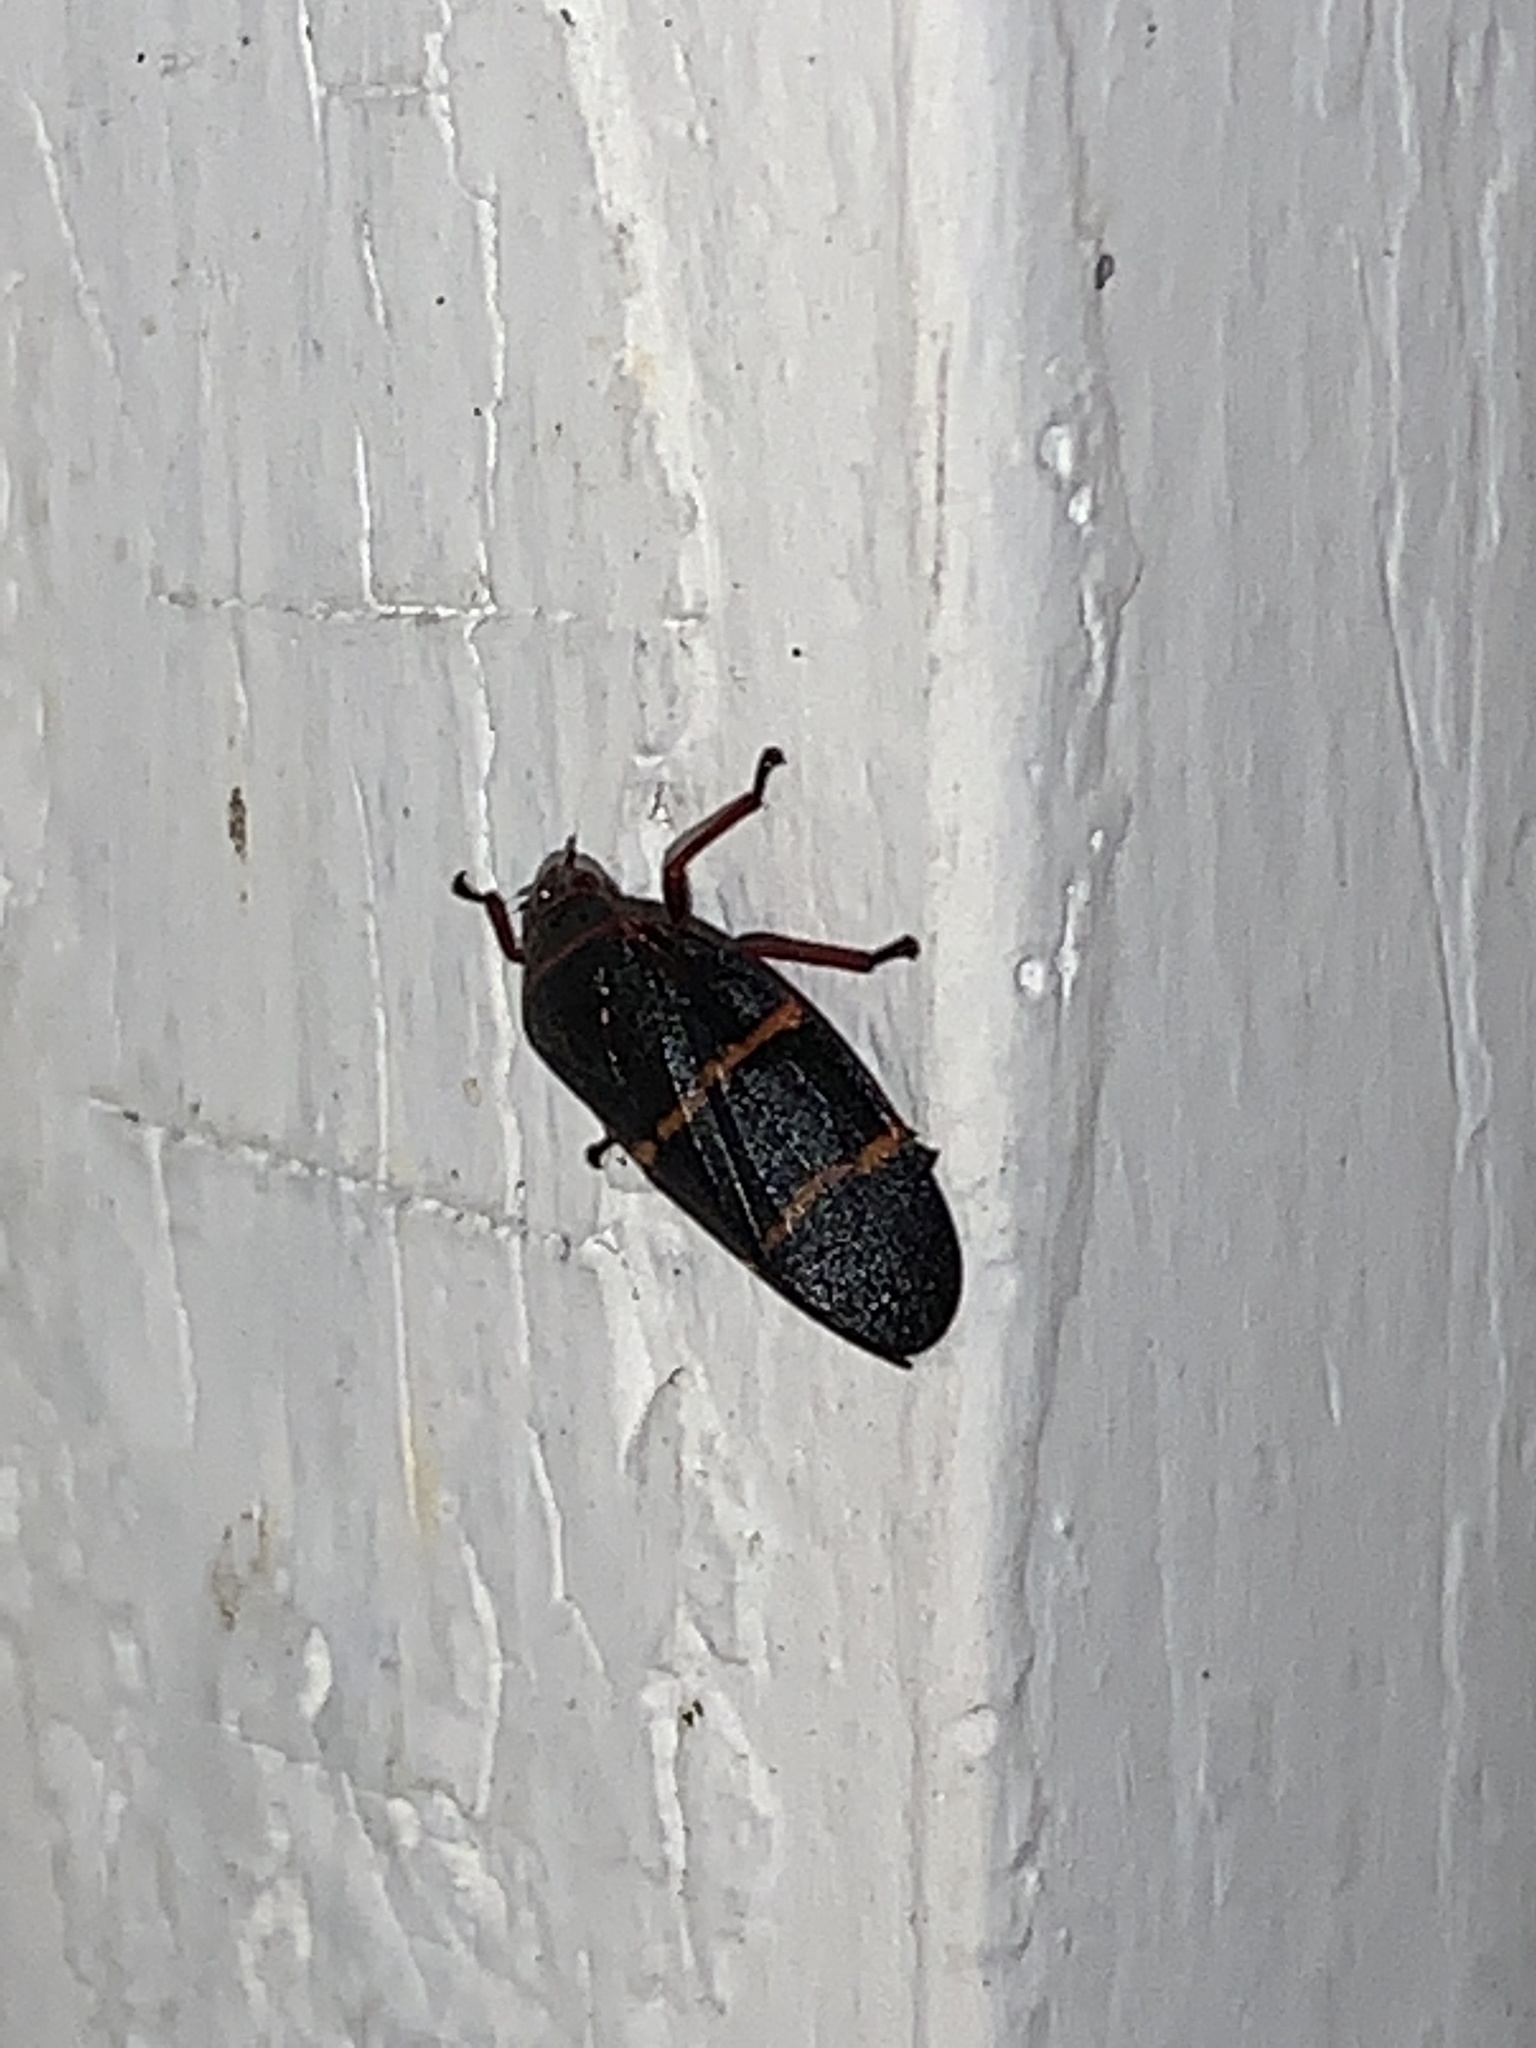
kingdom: Animalia
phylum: Arthropoda
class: Insecta
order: Hemiptera
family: Cercopidae
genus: Prosapia
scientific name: Prosapia bicincta
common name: Twolined spittlebug
